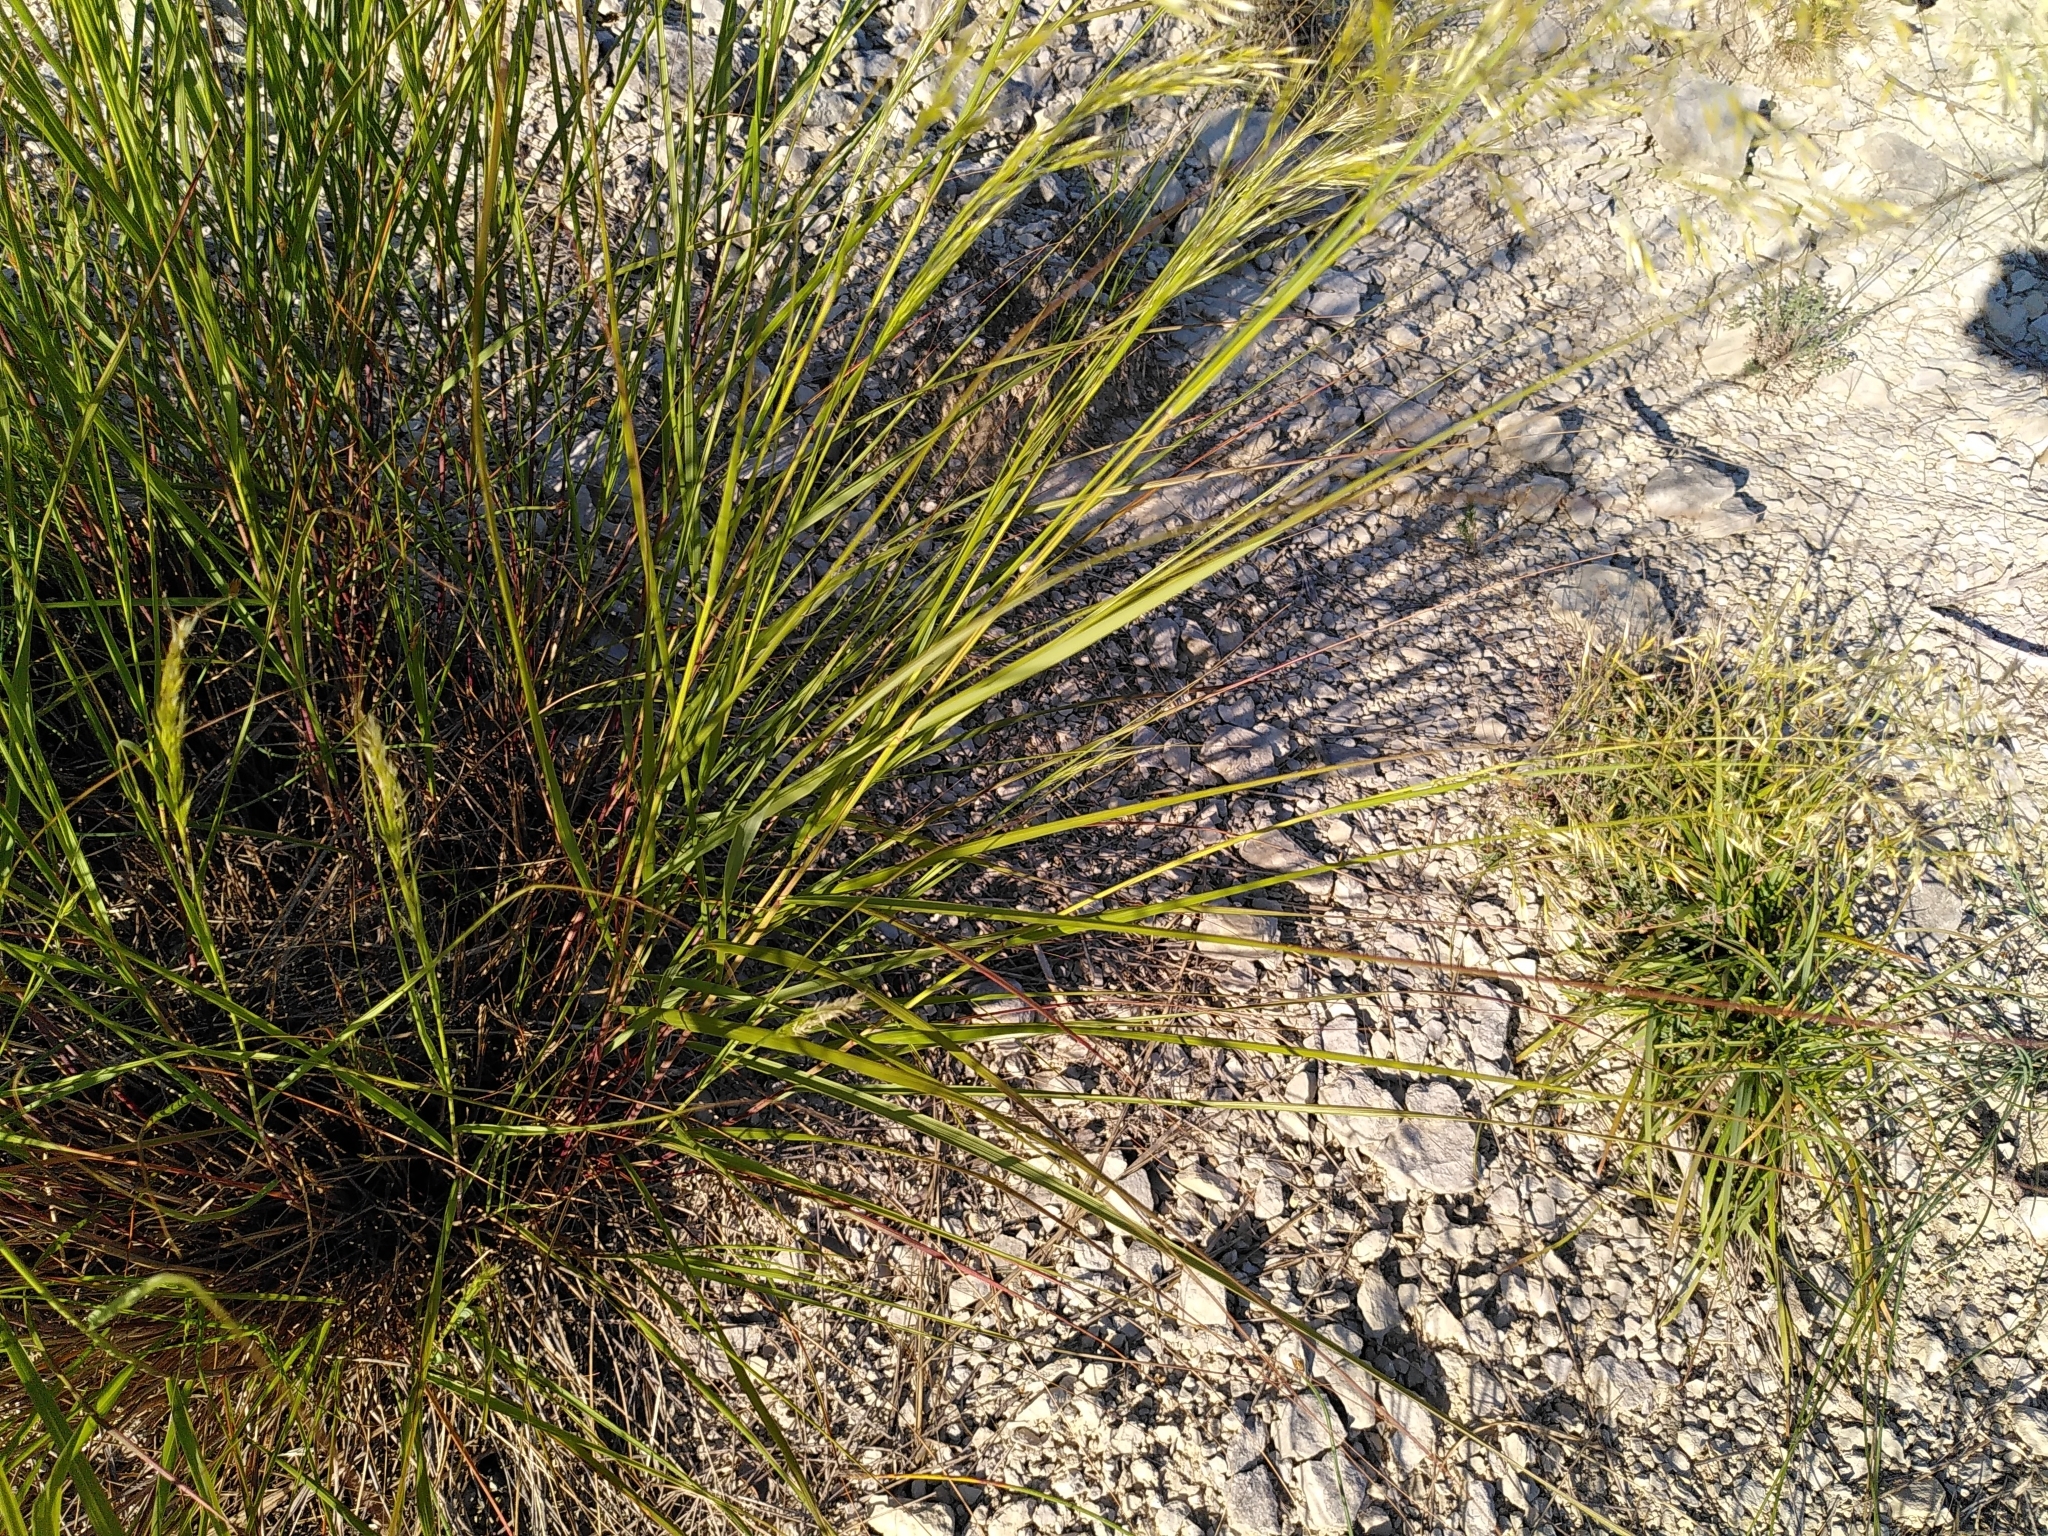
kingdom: Plantae
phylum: Tracheophyta
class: Liliopsida
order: Poales
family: Poaceae
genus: Trisetum
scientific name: Trisetum flavescens
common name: Yellow oat-grass
